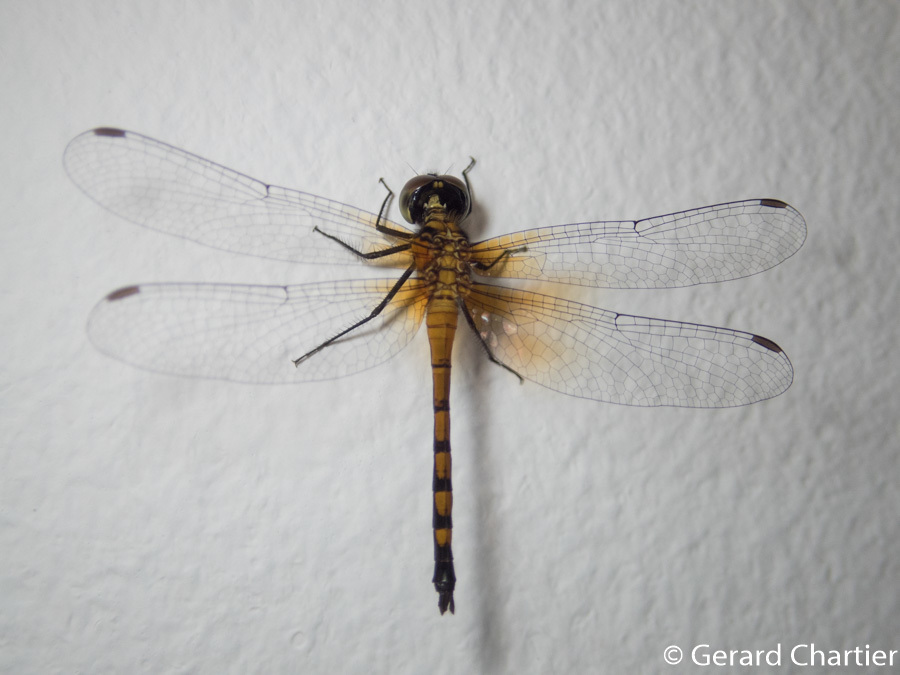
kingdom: Animalia
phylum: Arthropoda
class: Insecta
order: Odonata
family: Libellulidae
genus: Amphithemis
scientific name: Amphithemis curvistyla
